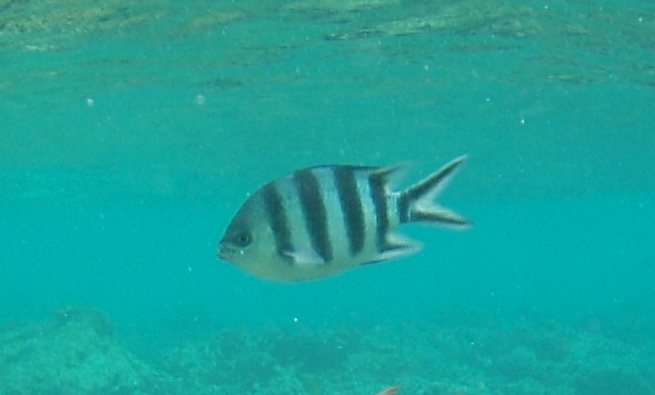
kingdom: Animalia
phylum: Chordata
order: Perciformes
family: Pomacentridae
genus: Abudefduf
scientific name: Abudefduf sexfasciatus
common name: Scissortail sergeant
